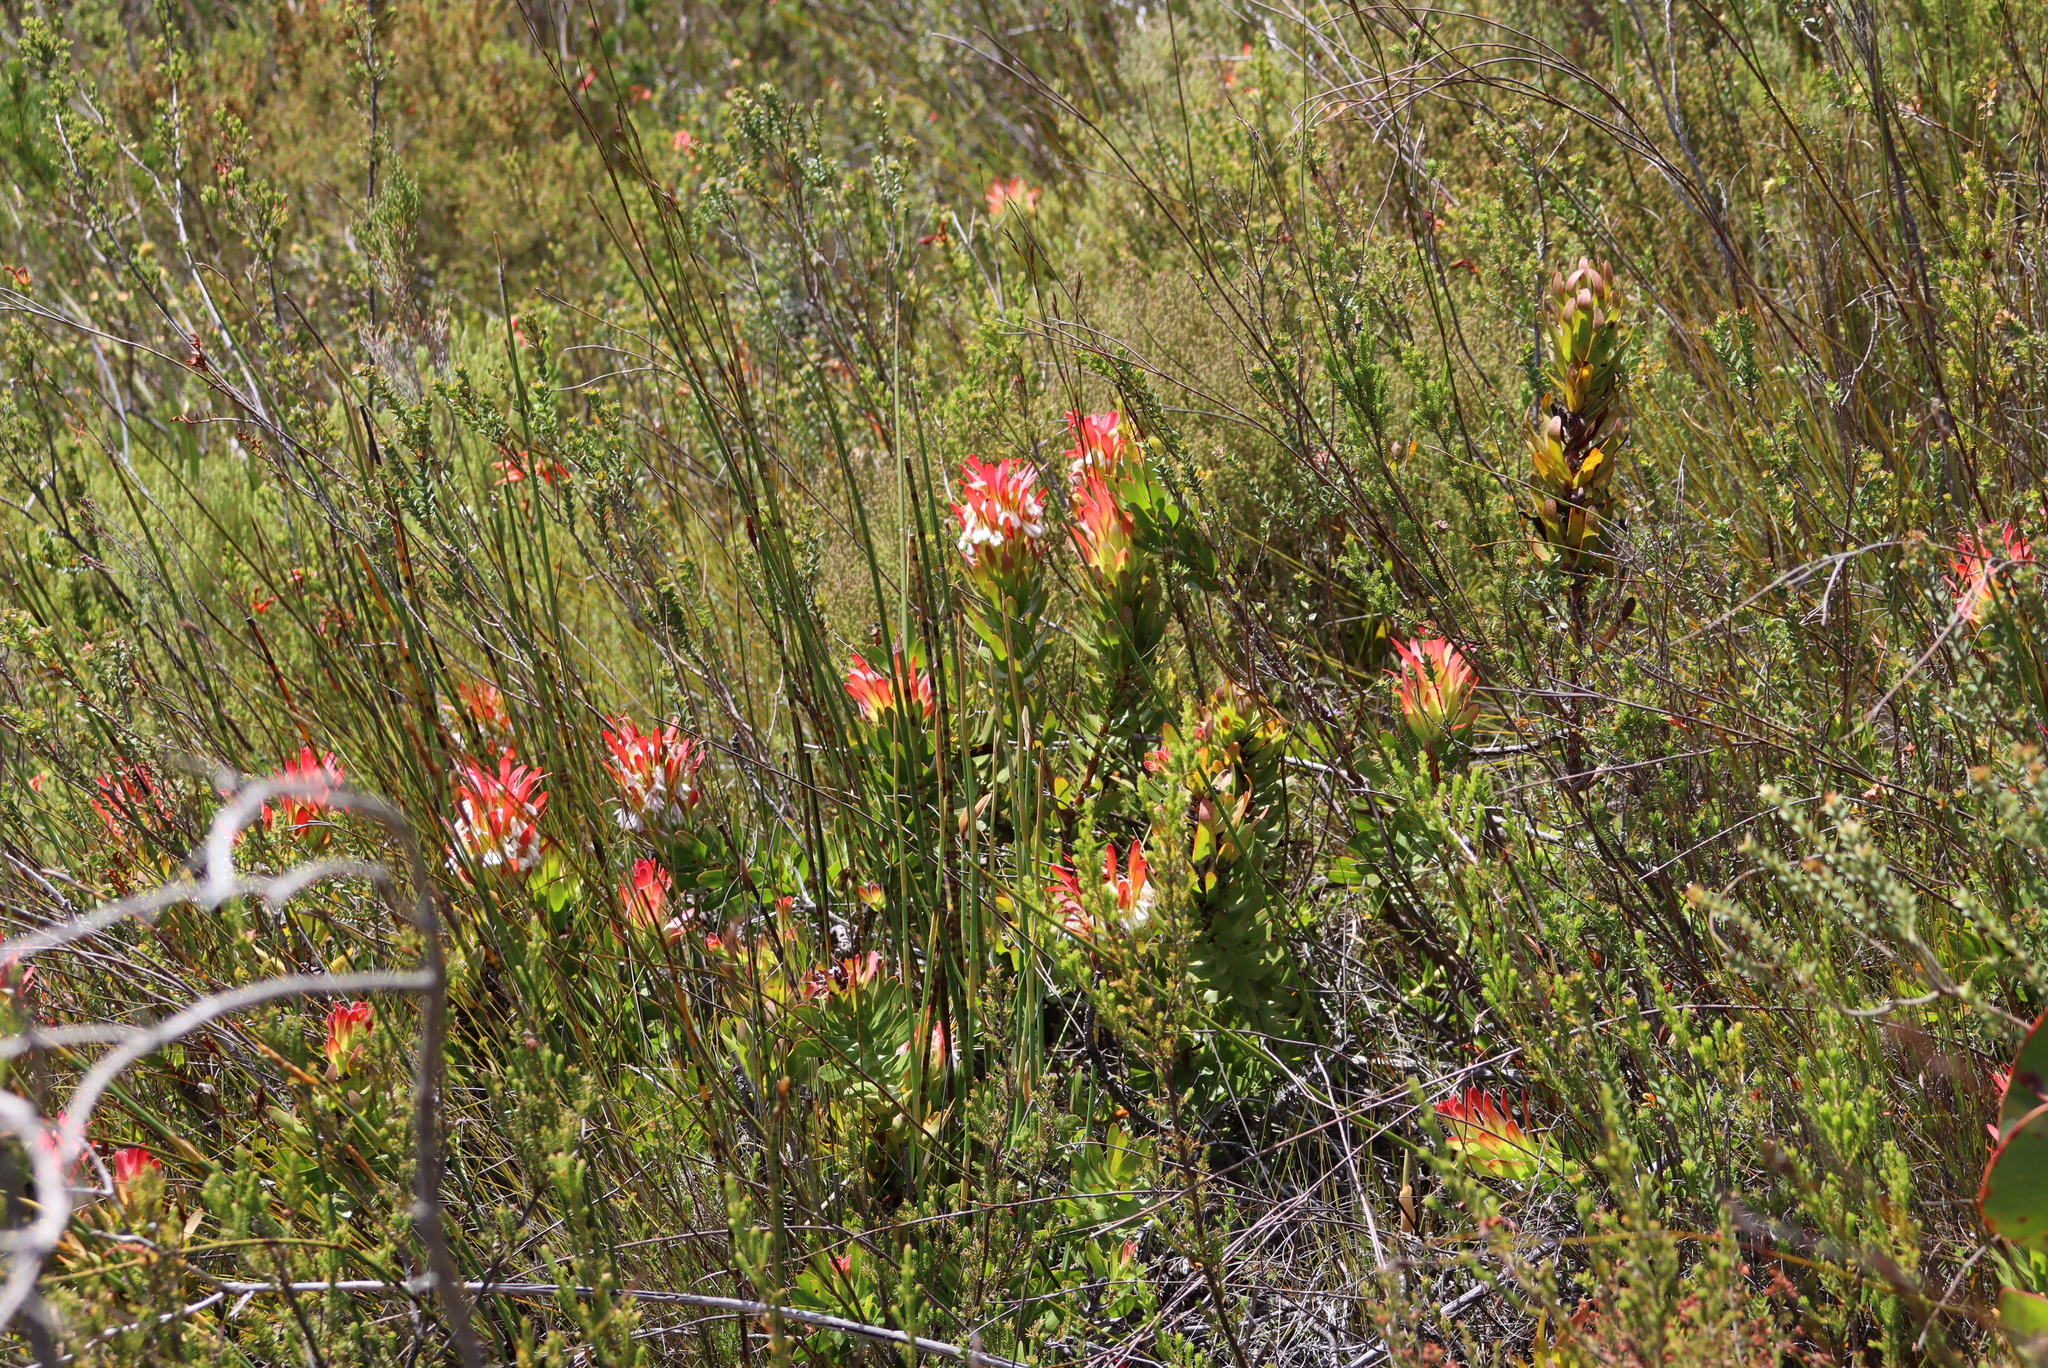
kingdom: Plantae
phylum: Tracheophyta
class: Magnoliopsida
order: Proteales
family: Proteaceae
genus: Mimetes
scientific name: Mimetes cucullatus
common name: Common pagoda
